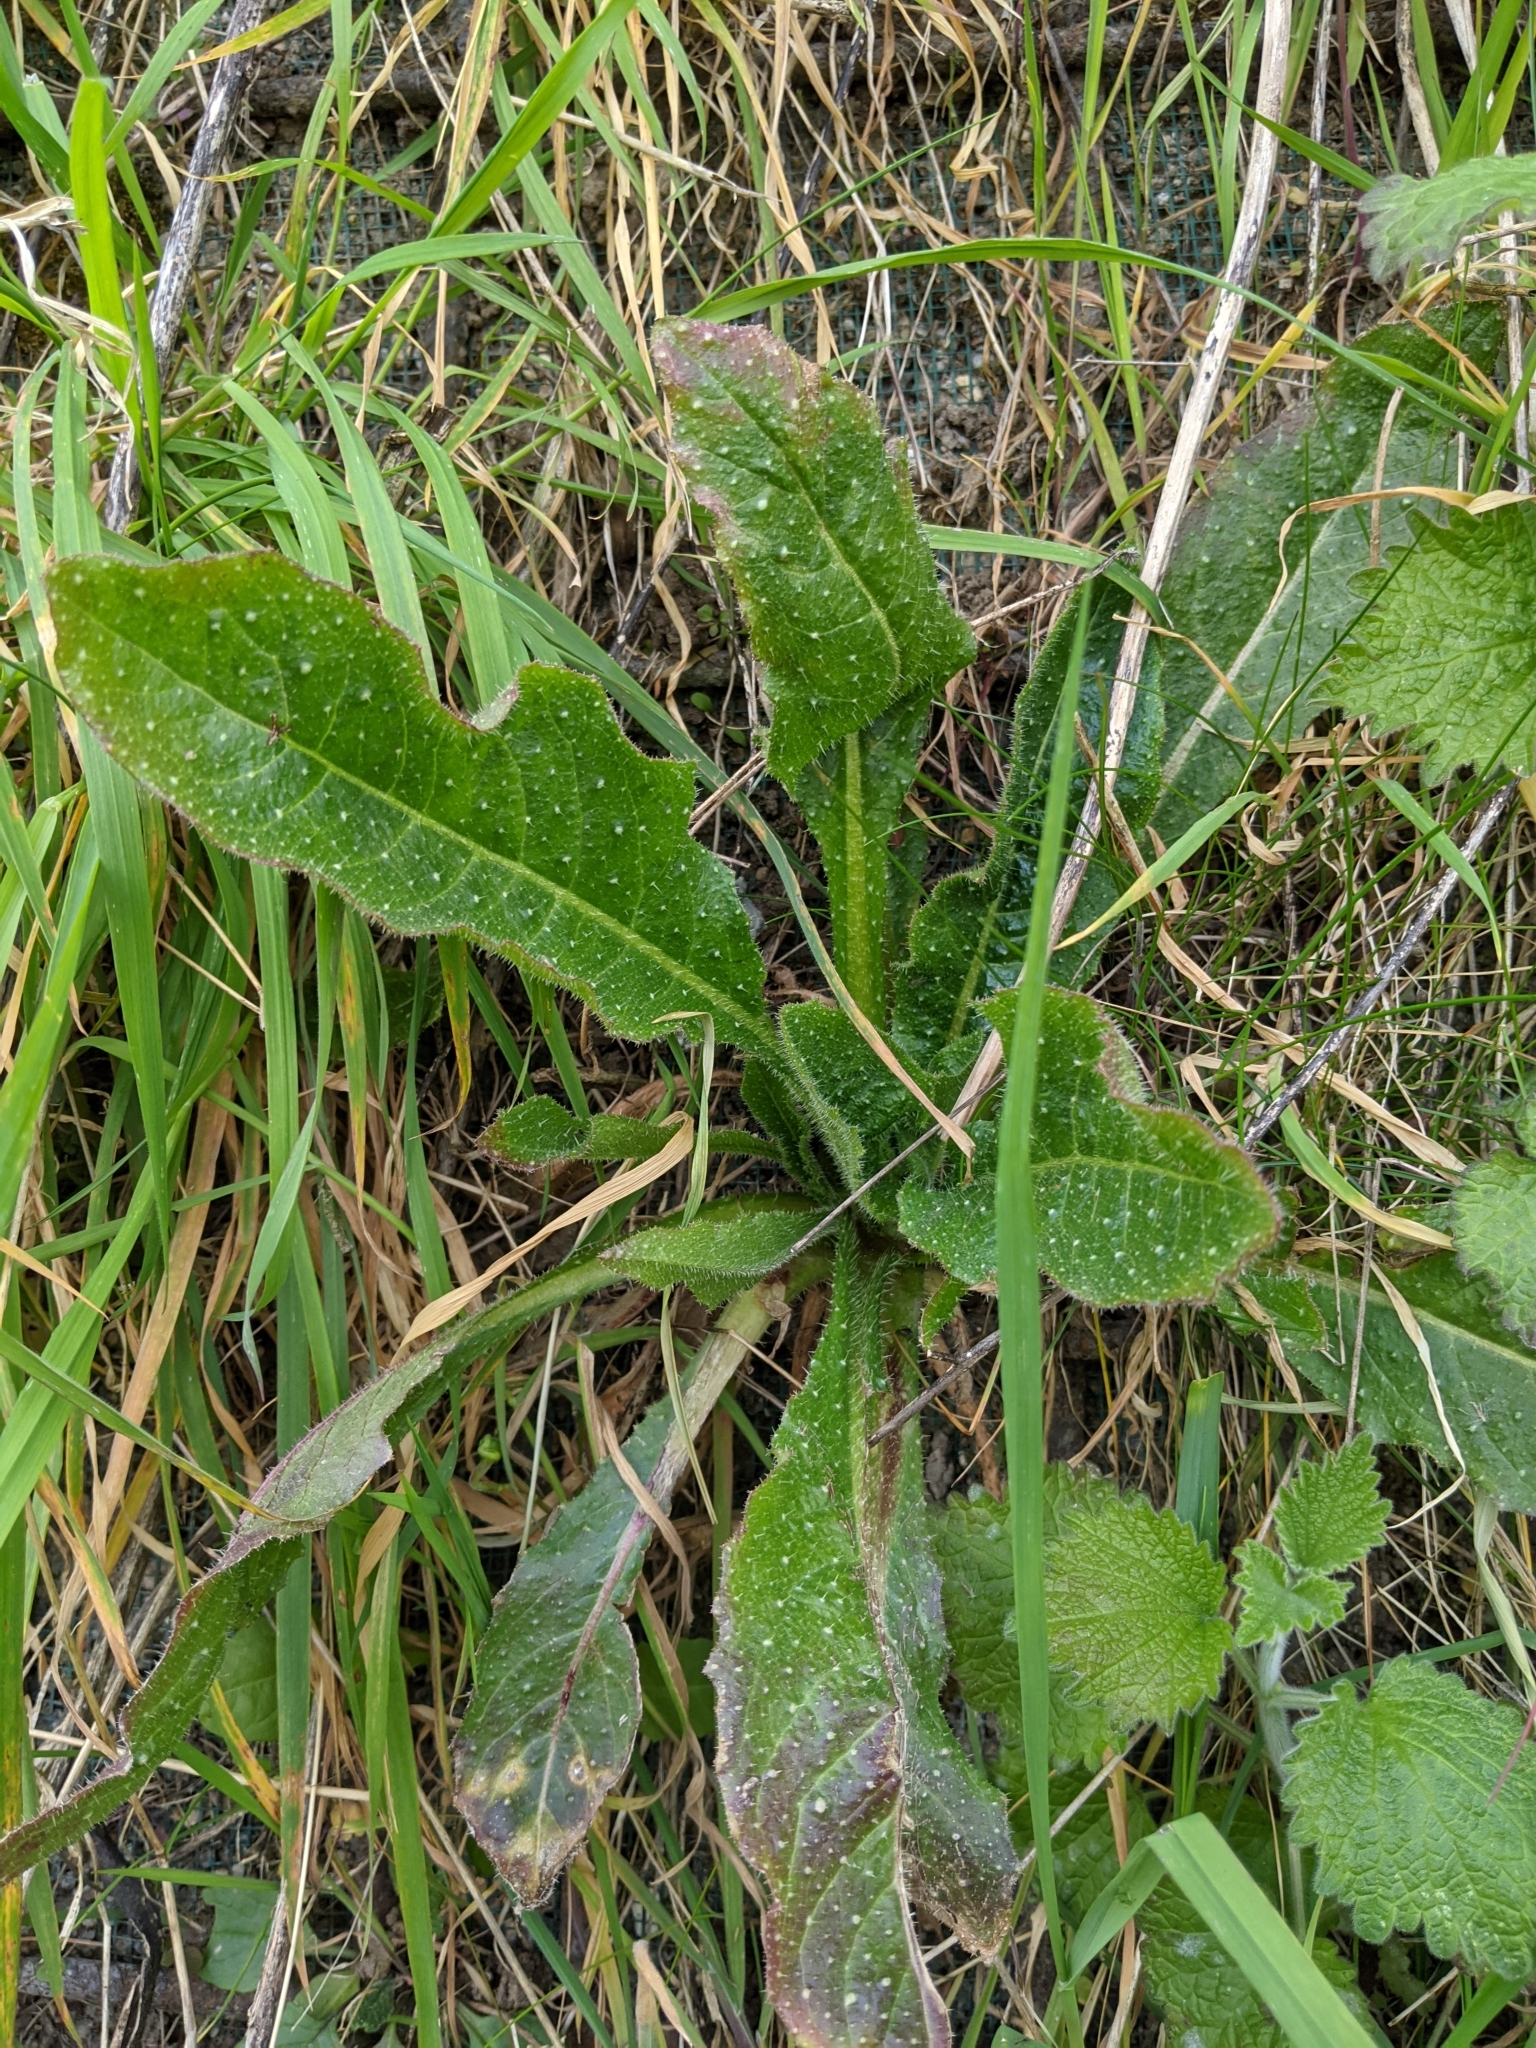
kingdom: Plantae
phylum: Tracheophyta
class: Magnoliopsida
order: Asterales
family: Asteraceae
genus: Helminthotheca
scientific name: Helminthotheca echioides
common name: Ox-tongue
